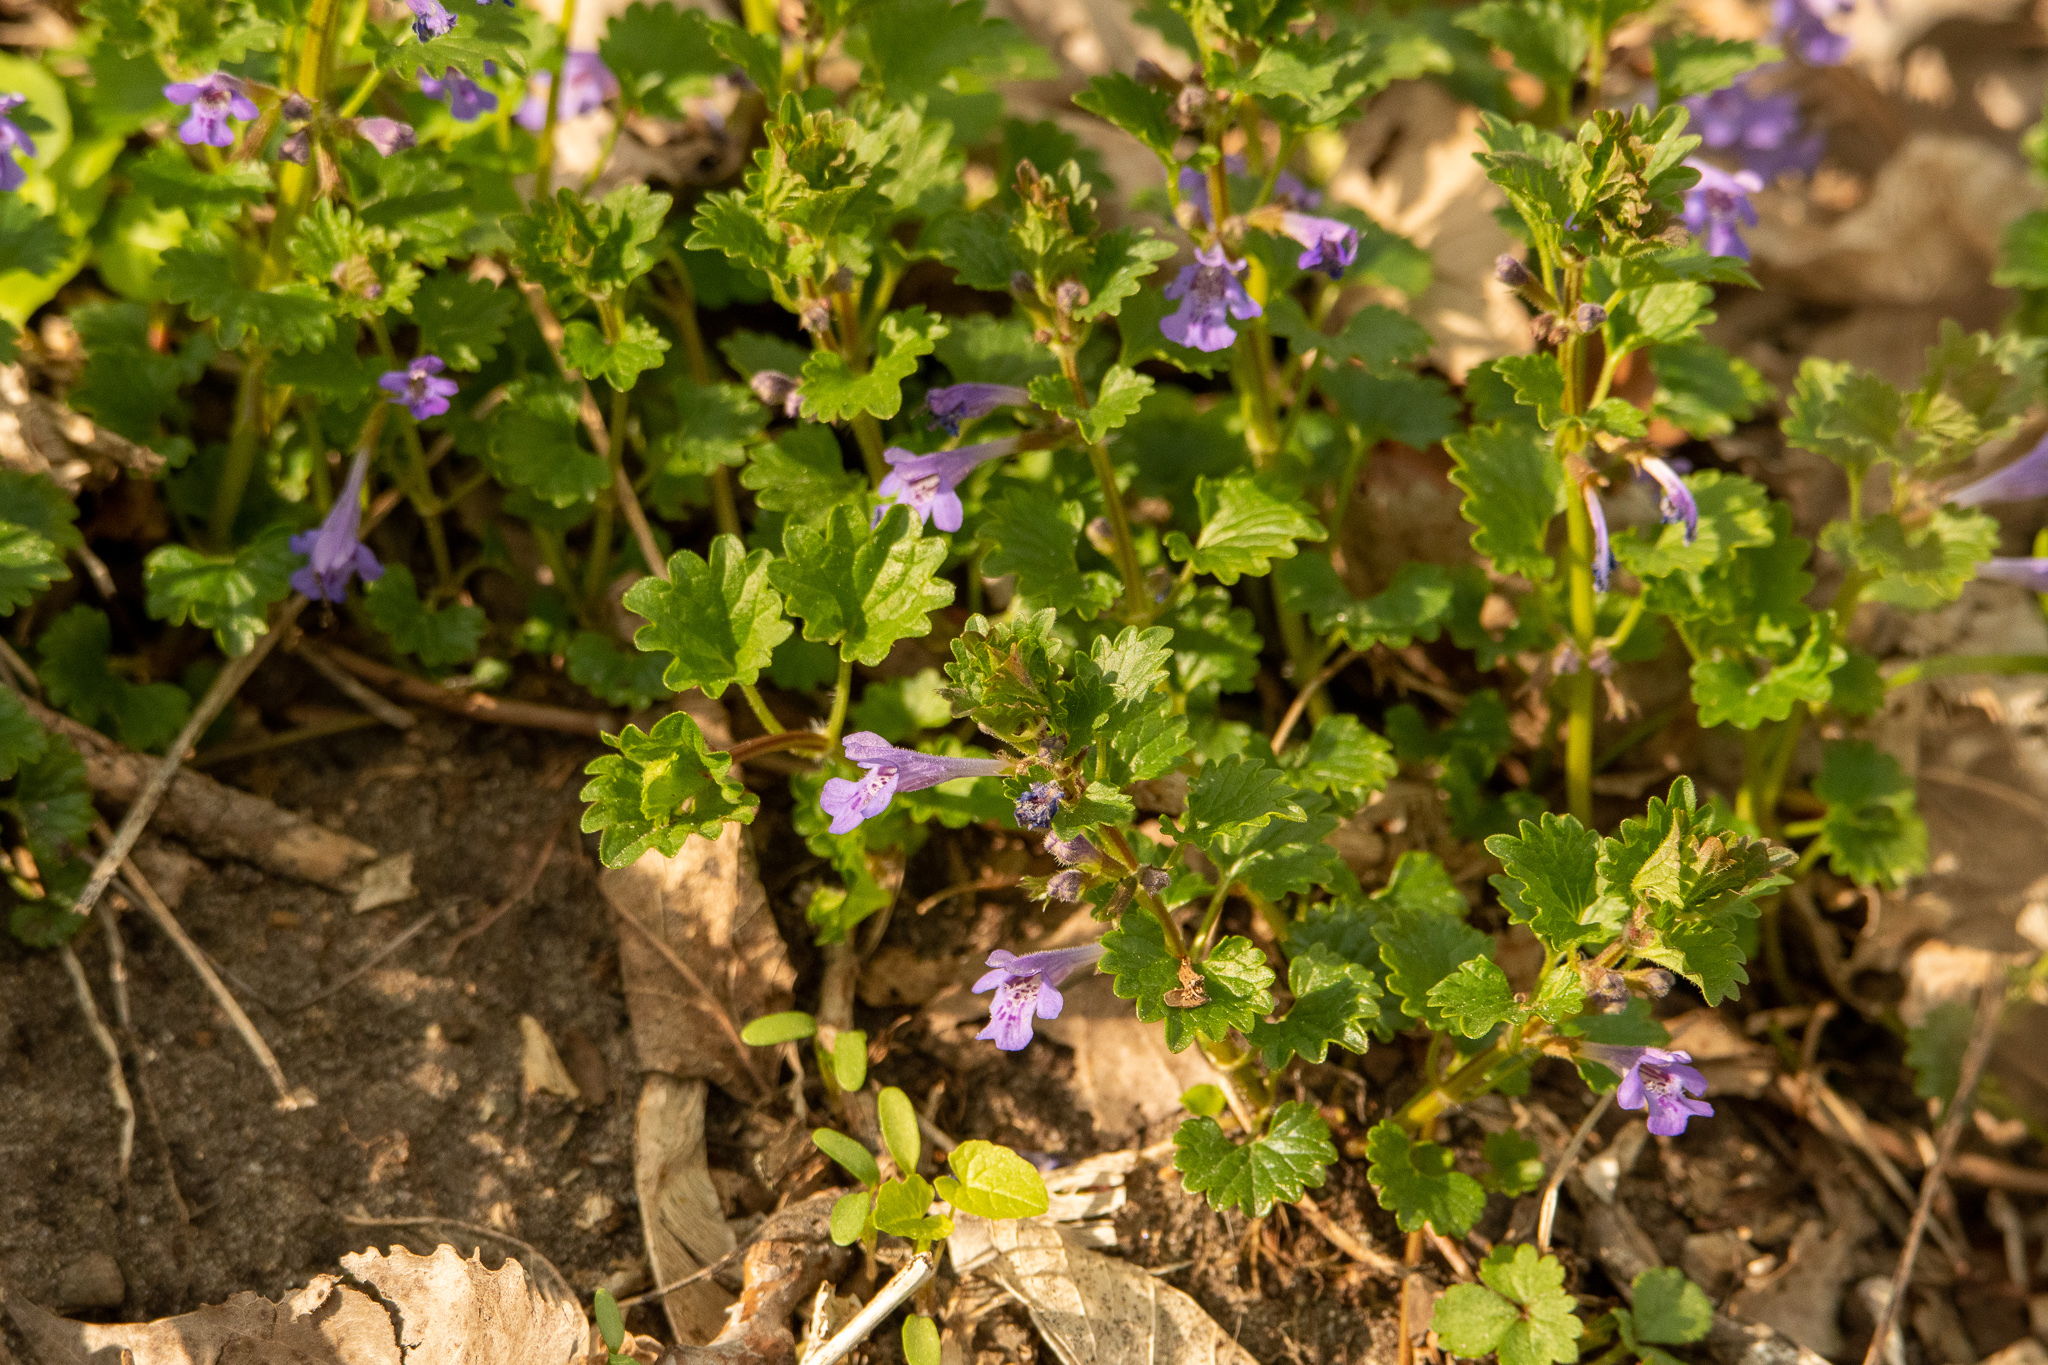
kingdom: Plantae
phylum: Tracheophyta
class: Magnoliopsida
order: Lamiales
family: Lamiaceae
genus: Glechoma
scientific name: Glechoma hederacea
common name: Ground ivy
